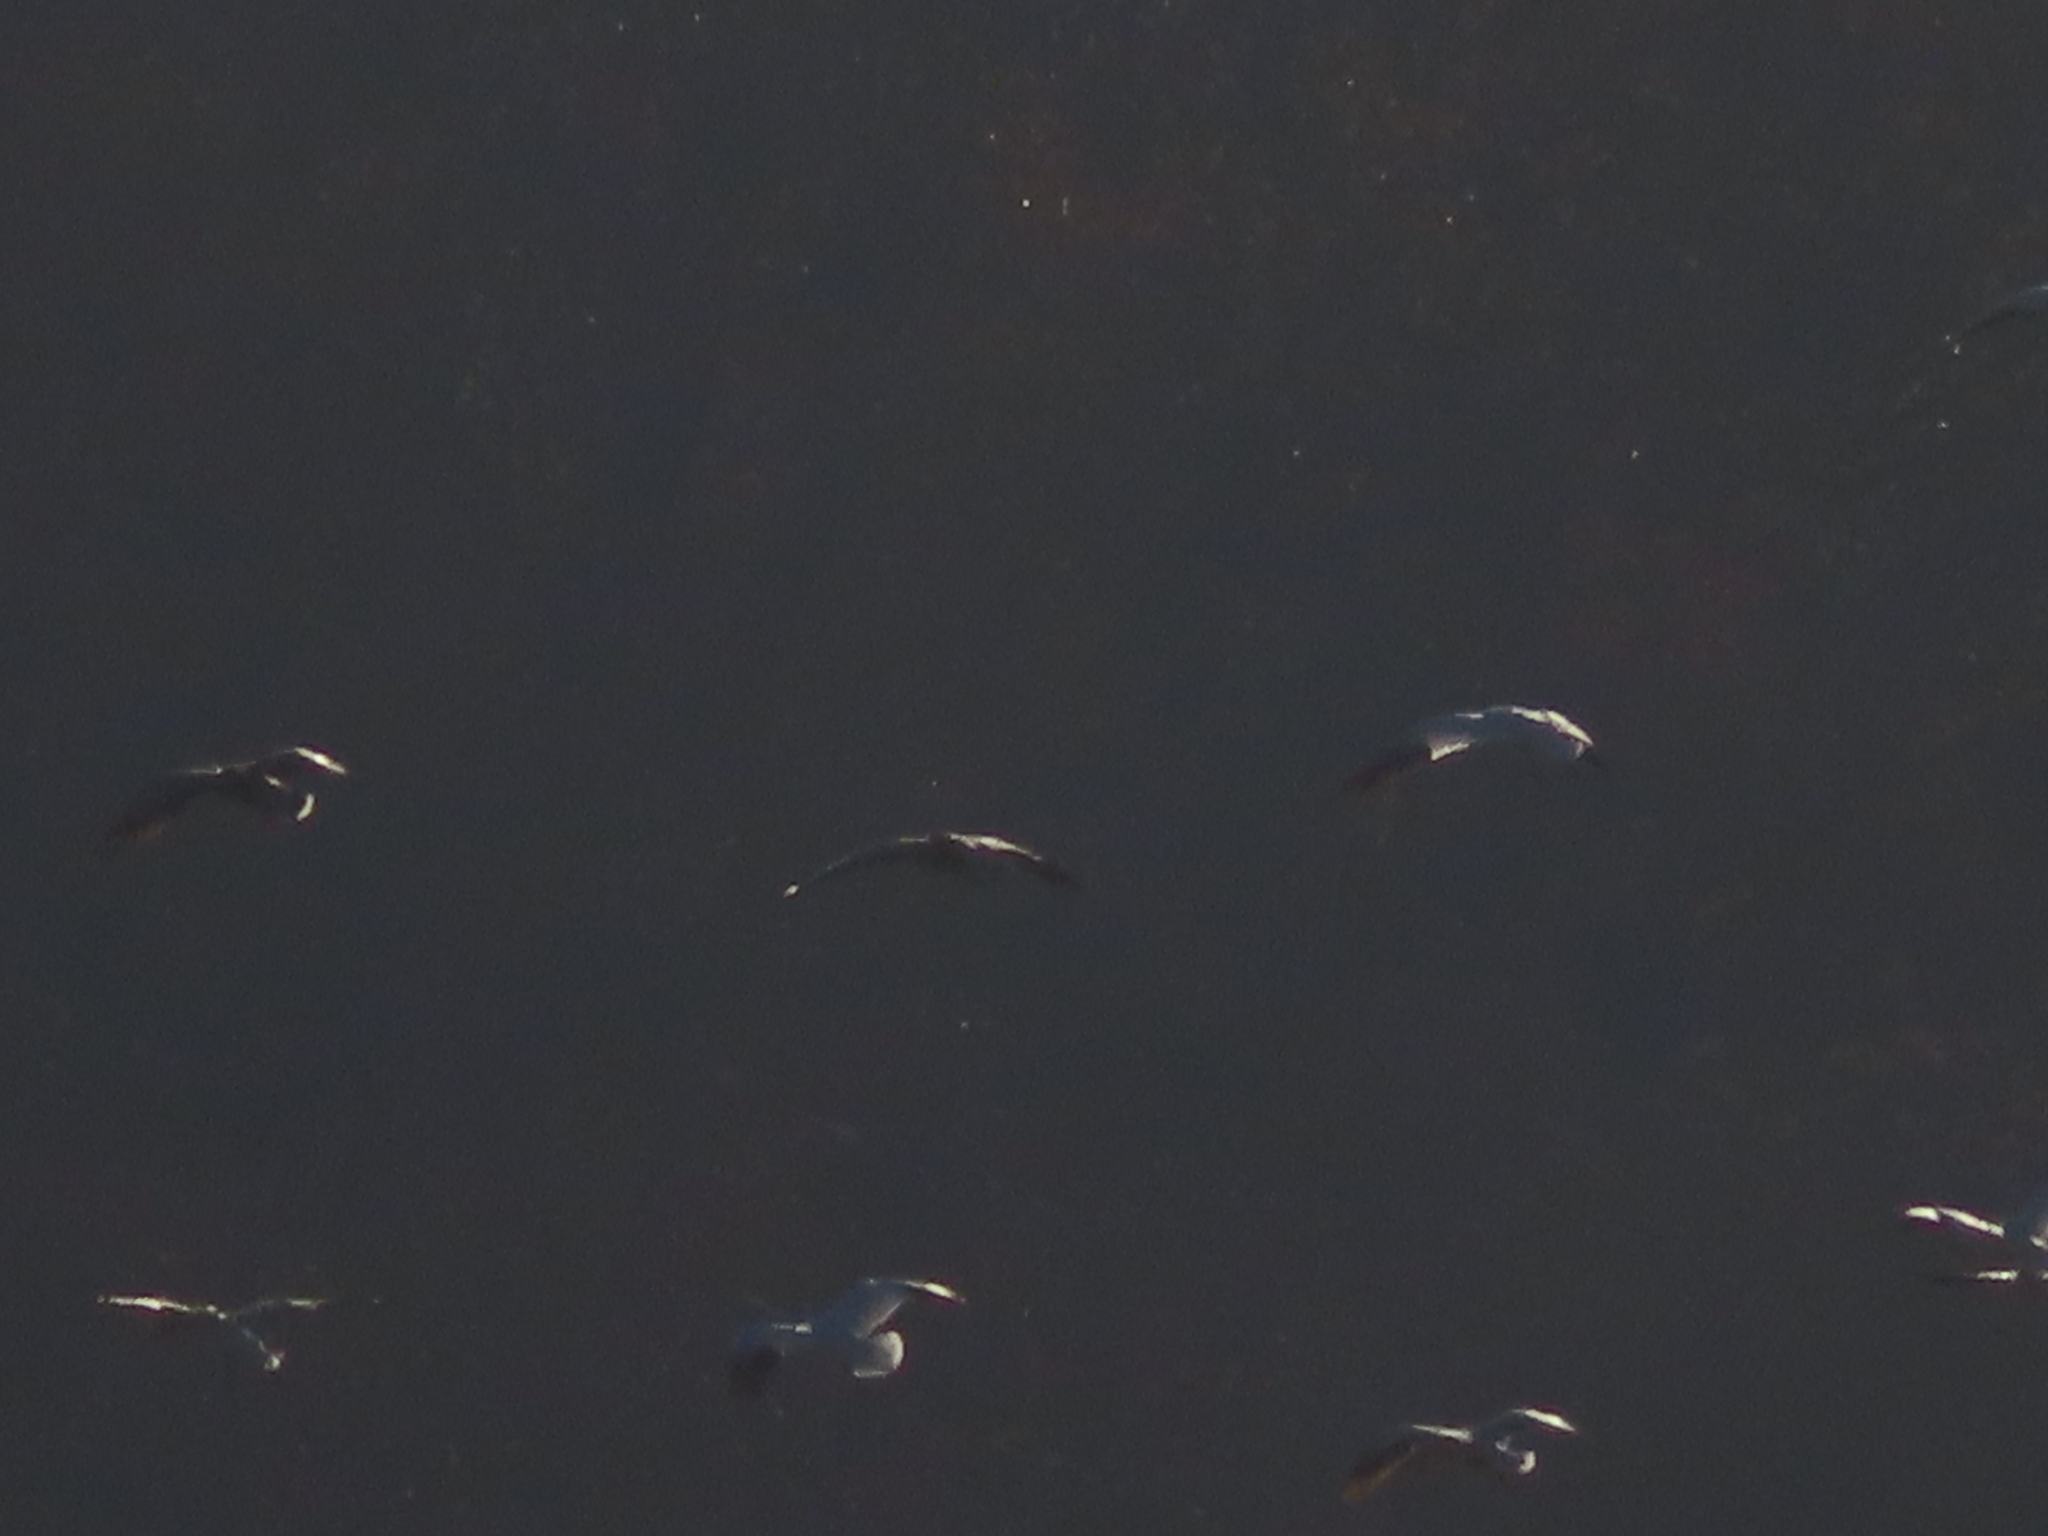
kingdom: Animalia
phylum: Chordata
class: Aves
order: Anseriformes
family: Anatidae
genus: Anser
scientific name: Anser caerulescens
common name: Snow goose
